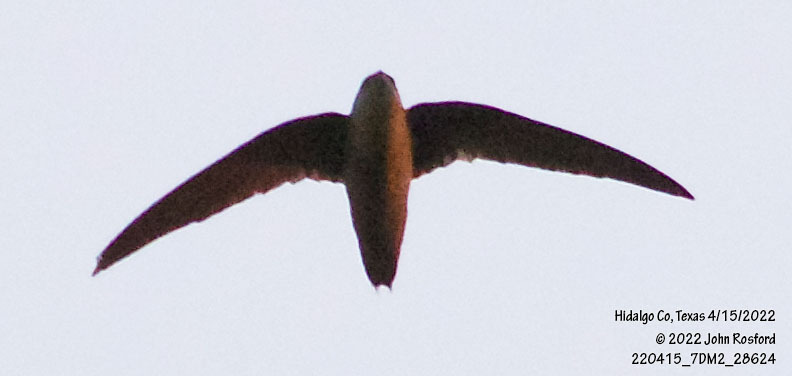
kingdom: Animalia
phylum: Chordata
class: Aves
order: Apodiformes
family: Apodidae
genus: Chaetura
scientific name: Chaetura pelagica
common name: Chimney swift
